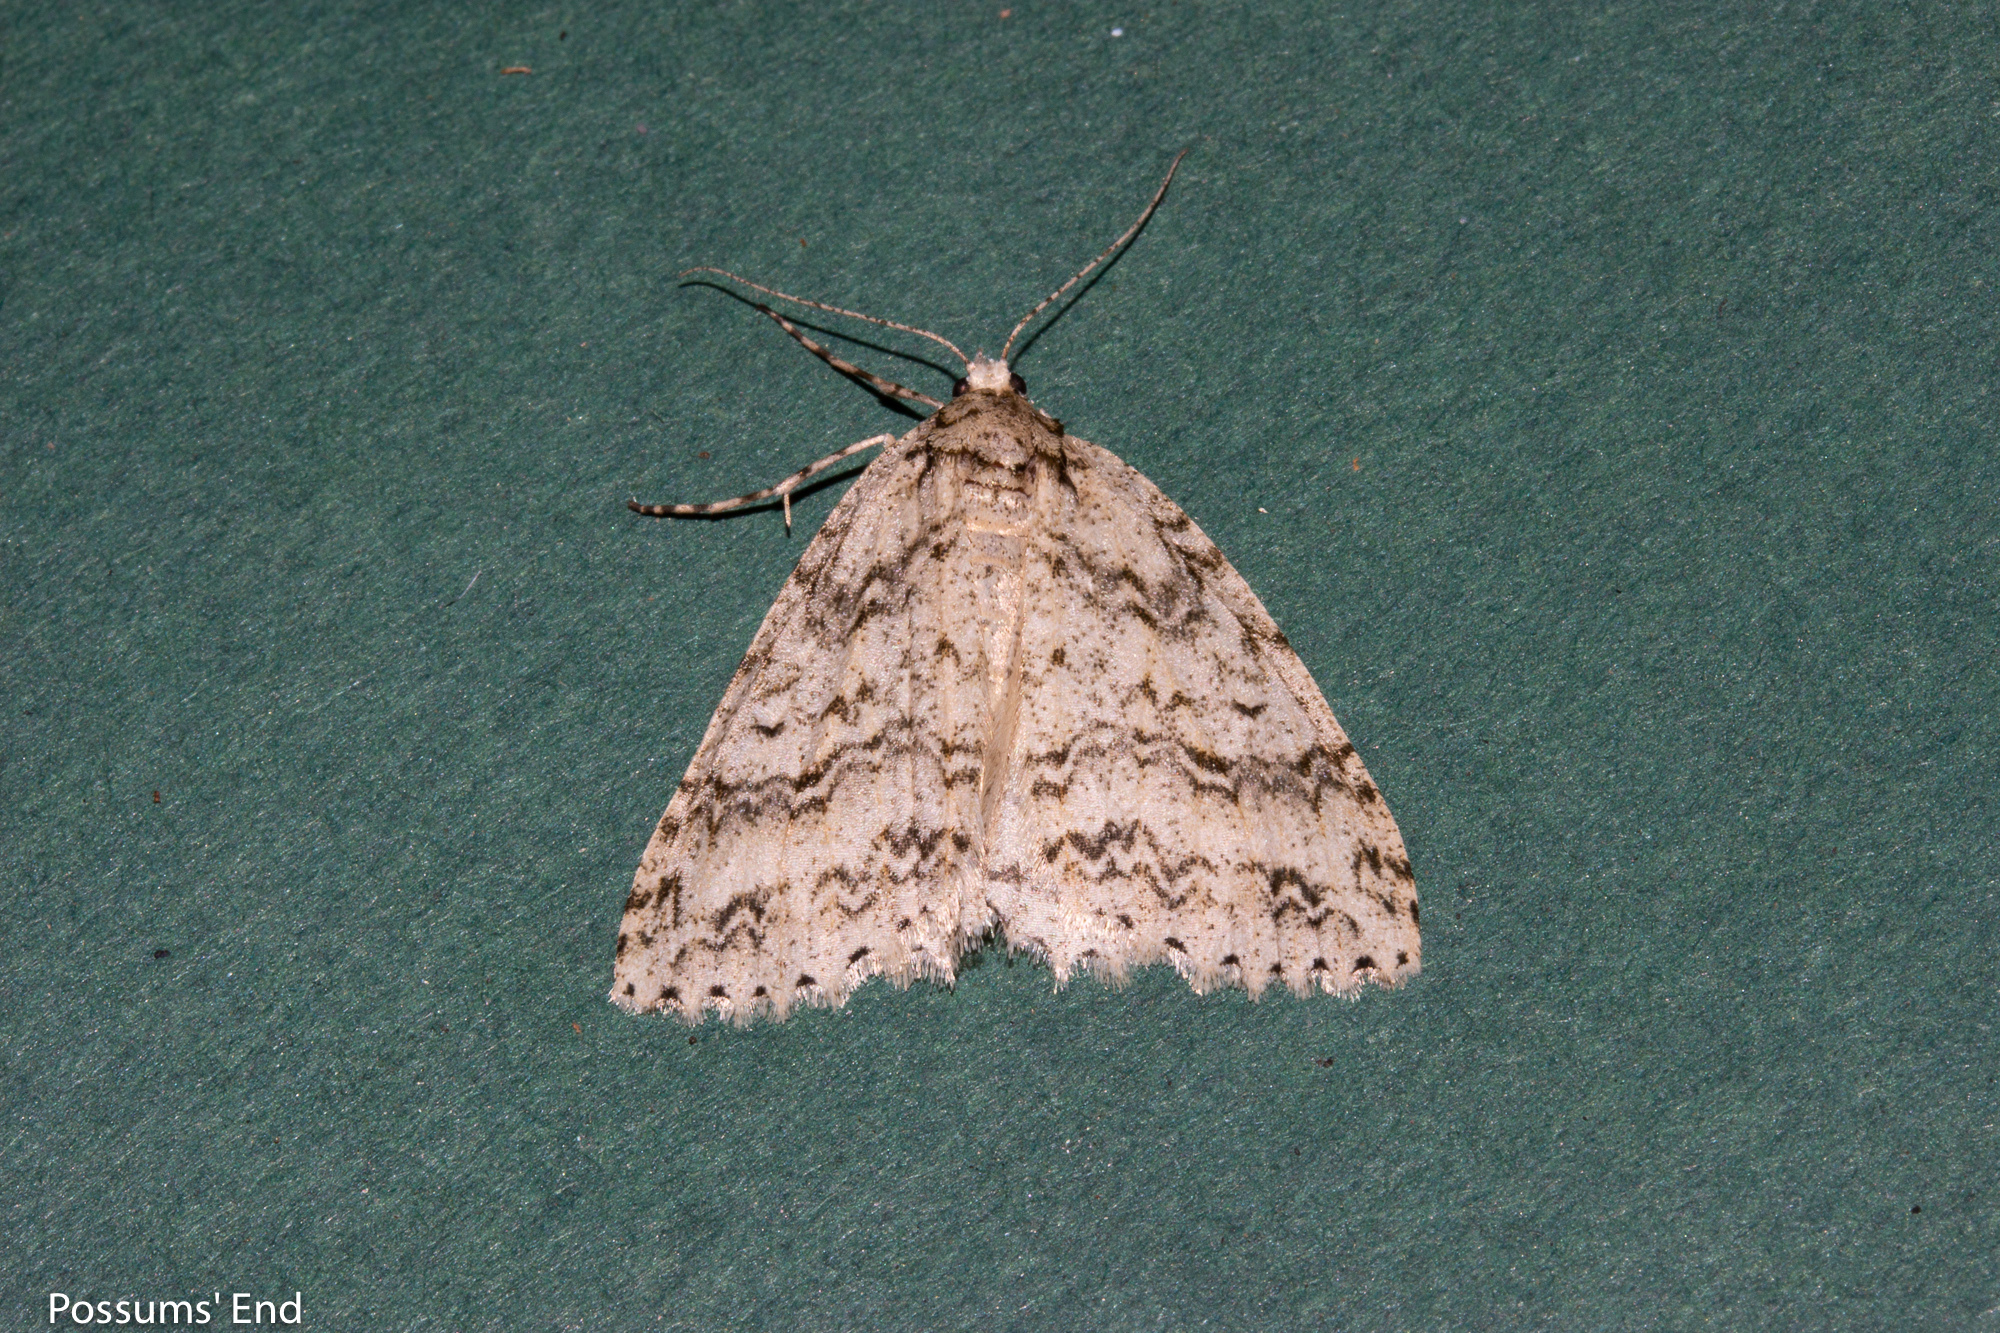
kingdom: Animalia
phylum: Arthropoda
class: Insecta
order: Lepidoptera
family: Geometridae
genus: Pseudocoremia
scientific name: Pseudocoremia rudisata
